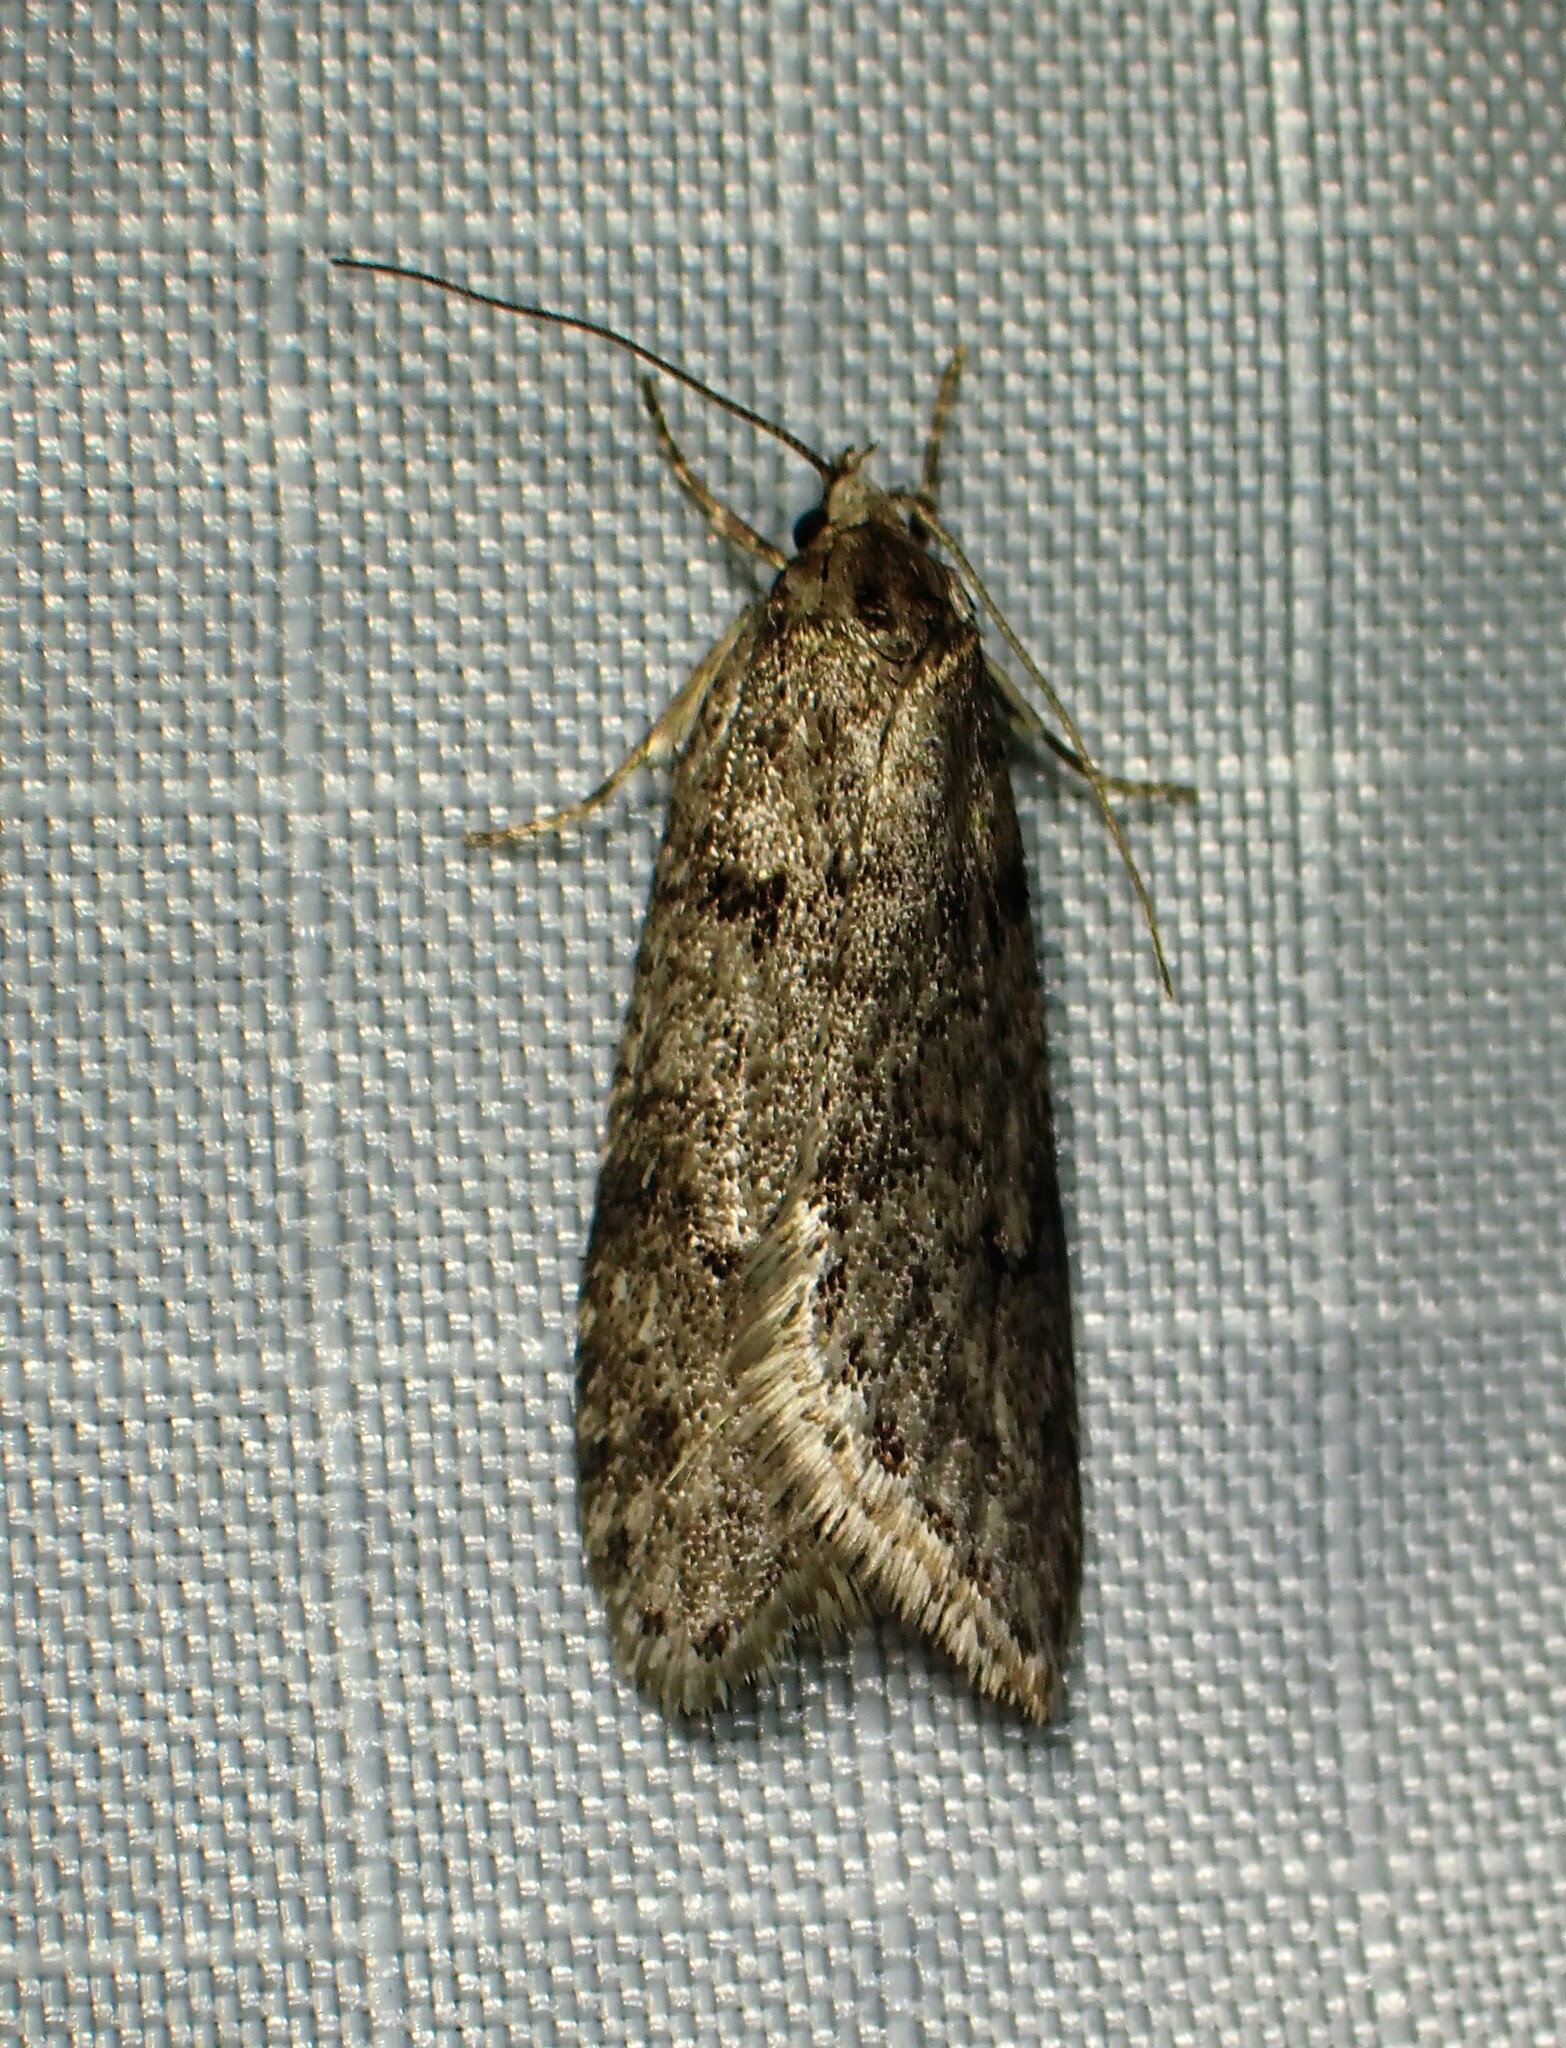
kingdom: Animalia
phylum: Arthropoda
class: Insecta
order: Lepidoptera
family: Depressariidae
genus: Semioscopis
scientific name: Semioscopis megamicrella
